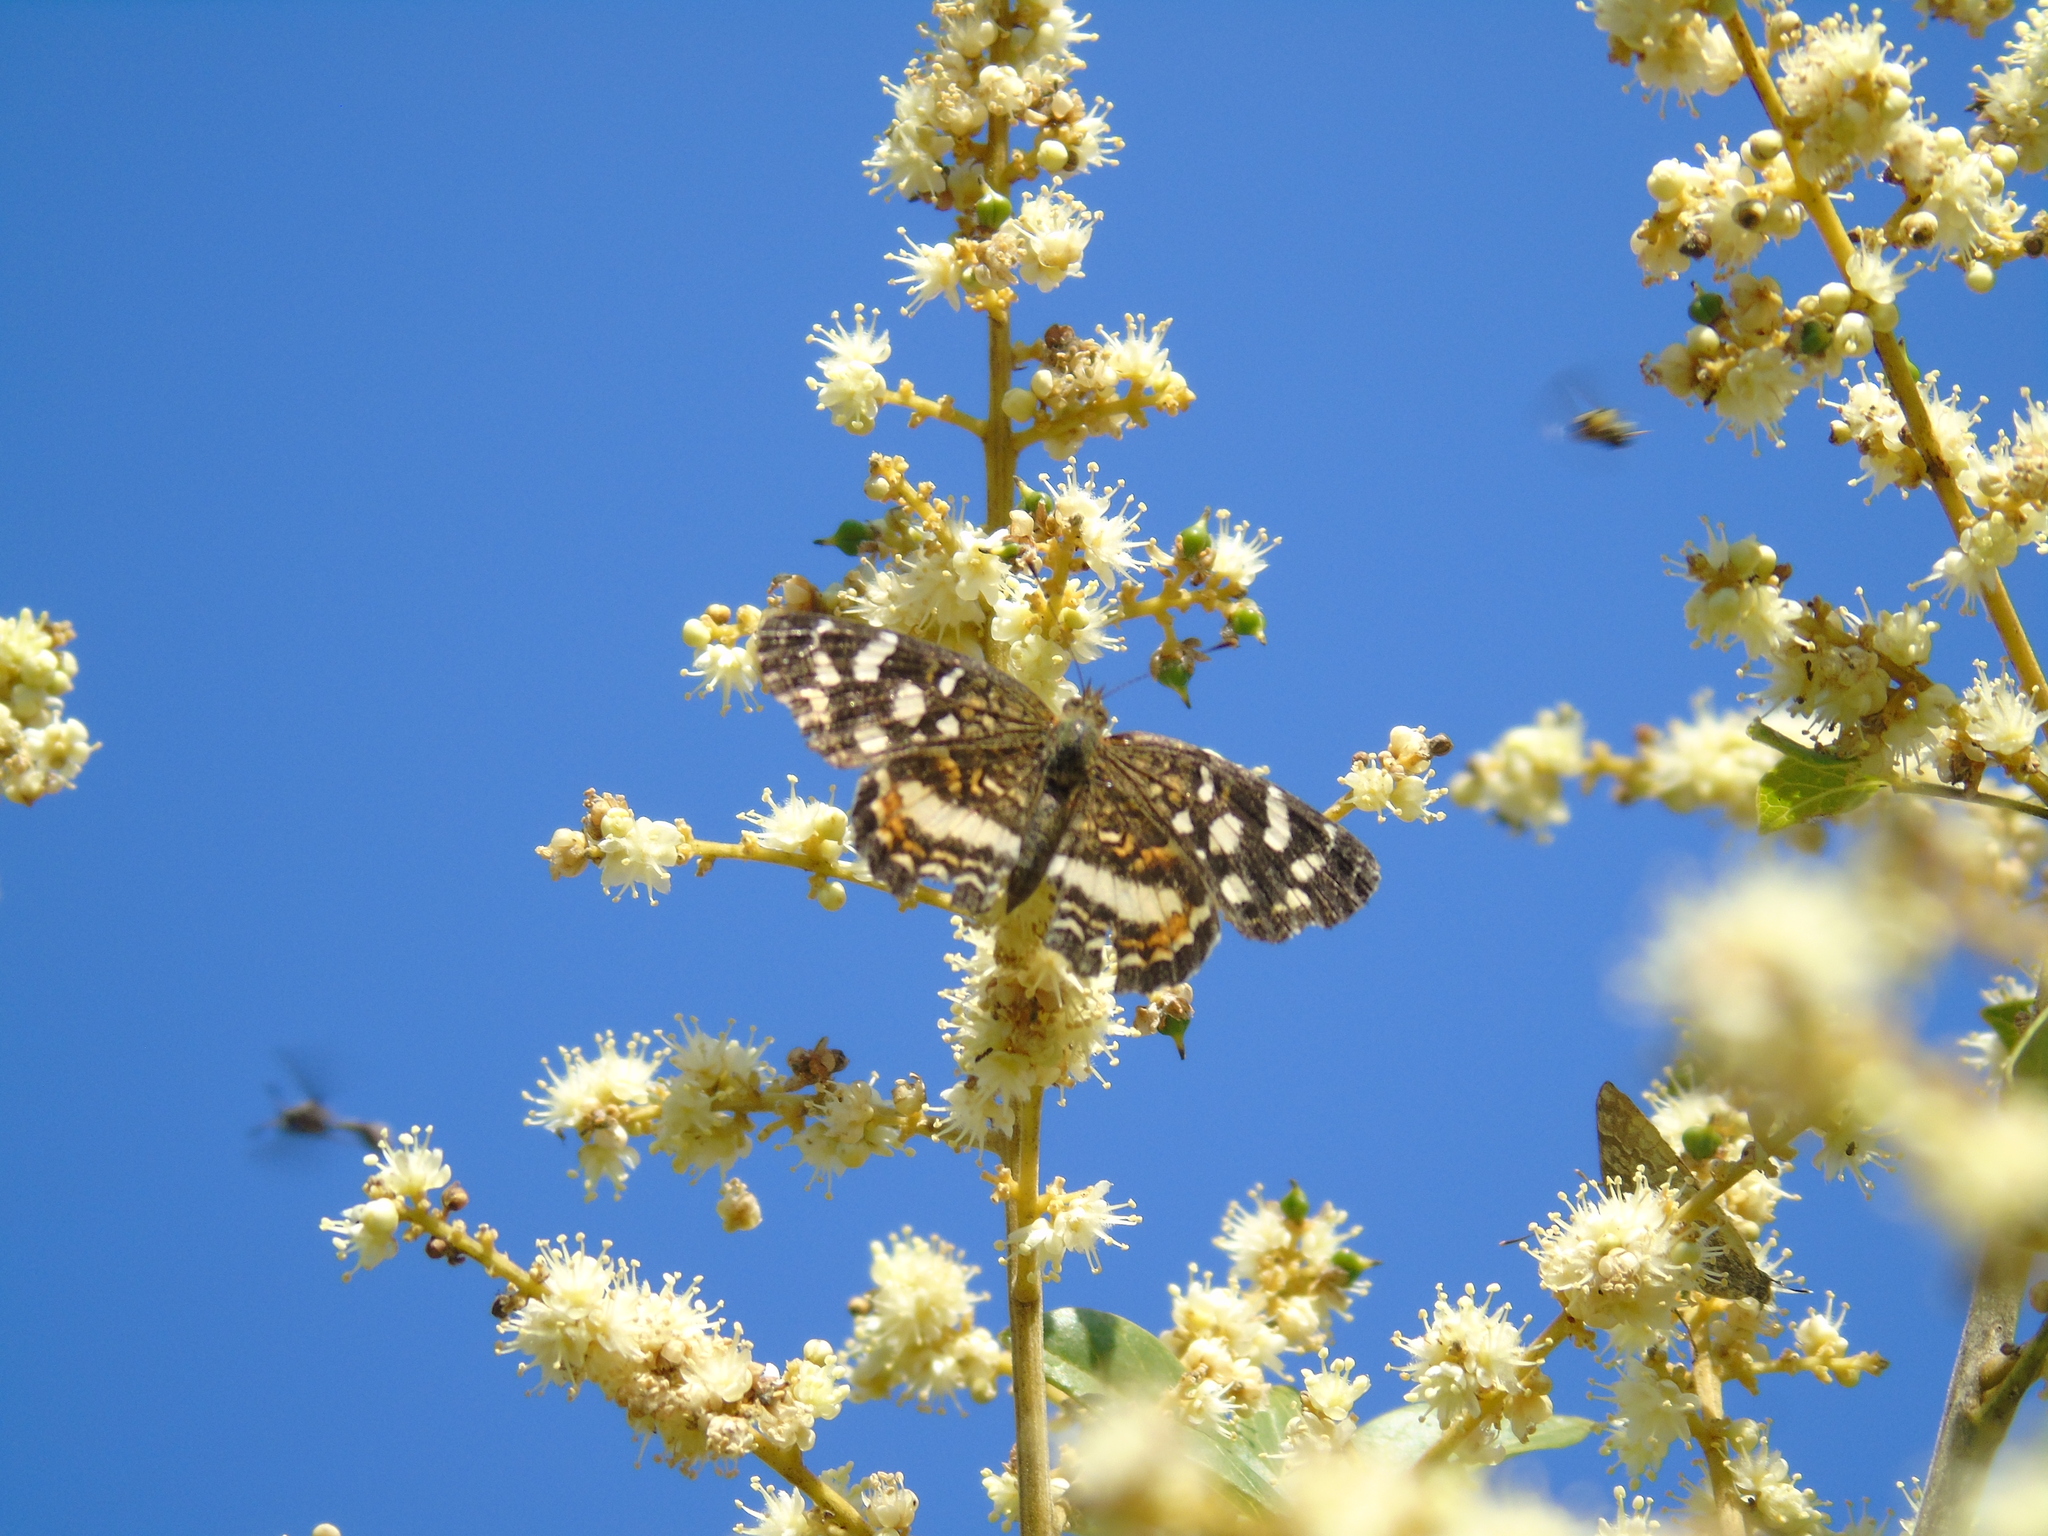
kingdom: Animalia
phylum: Arthropoda
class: Insecta
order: Lepidoptera
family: Nymphalidae
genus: Anthanassa
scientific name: Anthanassa tulcis
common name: Pale-banded crescent
